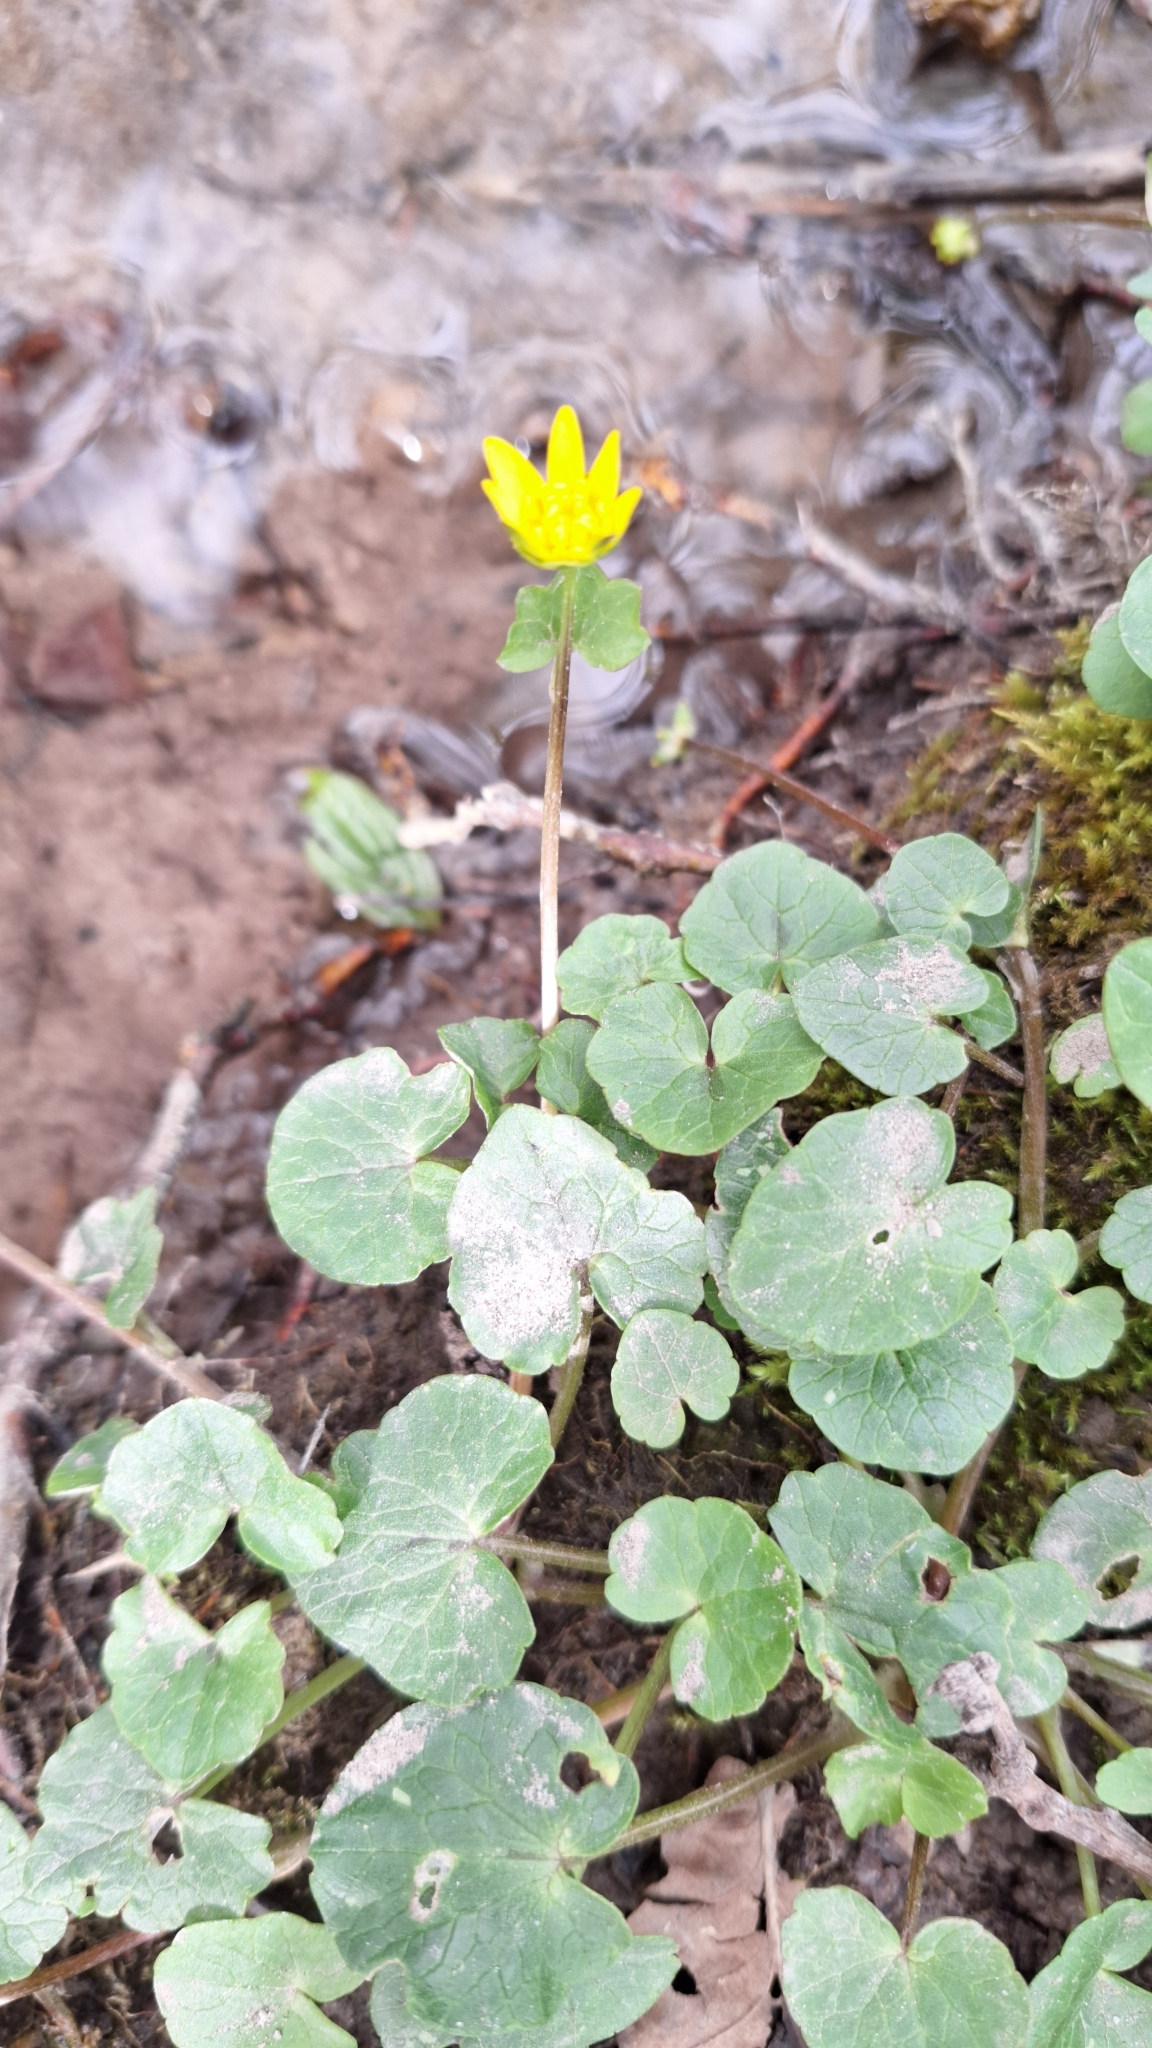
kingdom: Plantae
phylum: Tracheophyta
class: Magnoliopsida
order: Ranunculales
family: Ranunculaceae
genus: Ficaria
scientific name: Ficaria verna
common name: Lesser celandine
